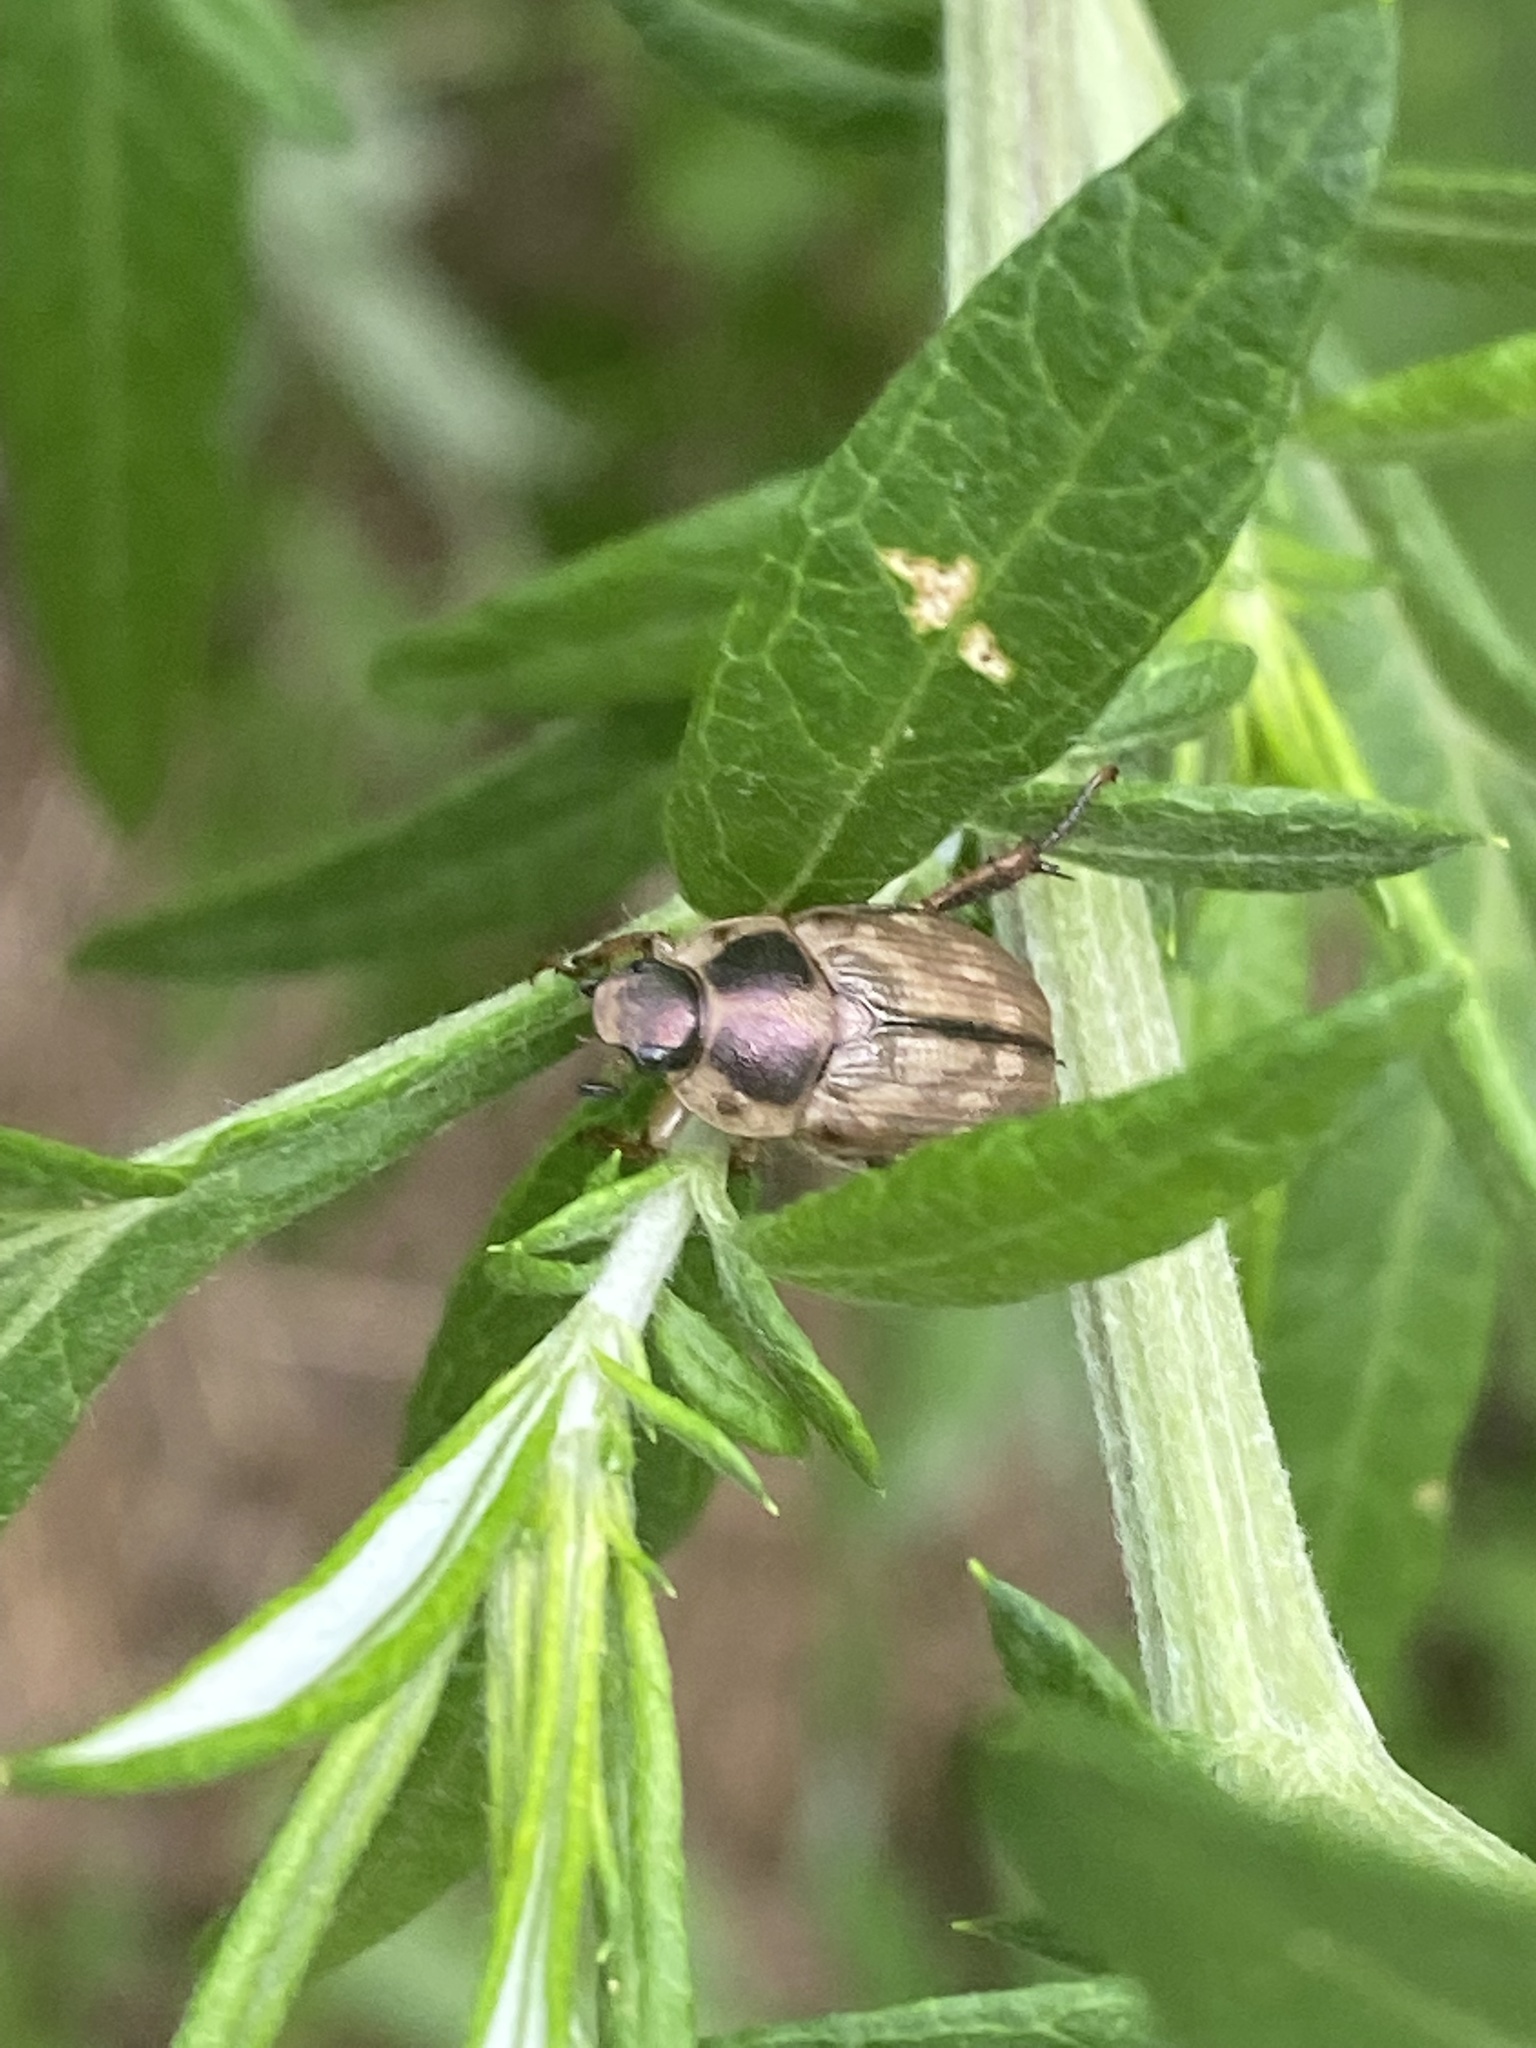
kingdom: Animalia
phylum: Arthropoda
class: Insecta
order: Coleoptera
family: Scarabaeidae
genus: Exomala
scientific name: Exomala orientalis
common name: Oriental beetle
